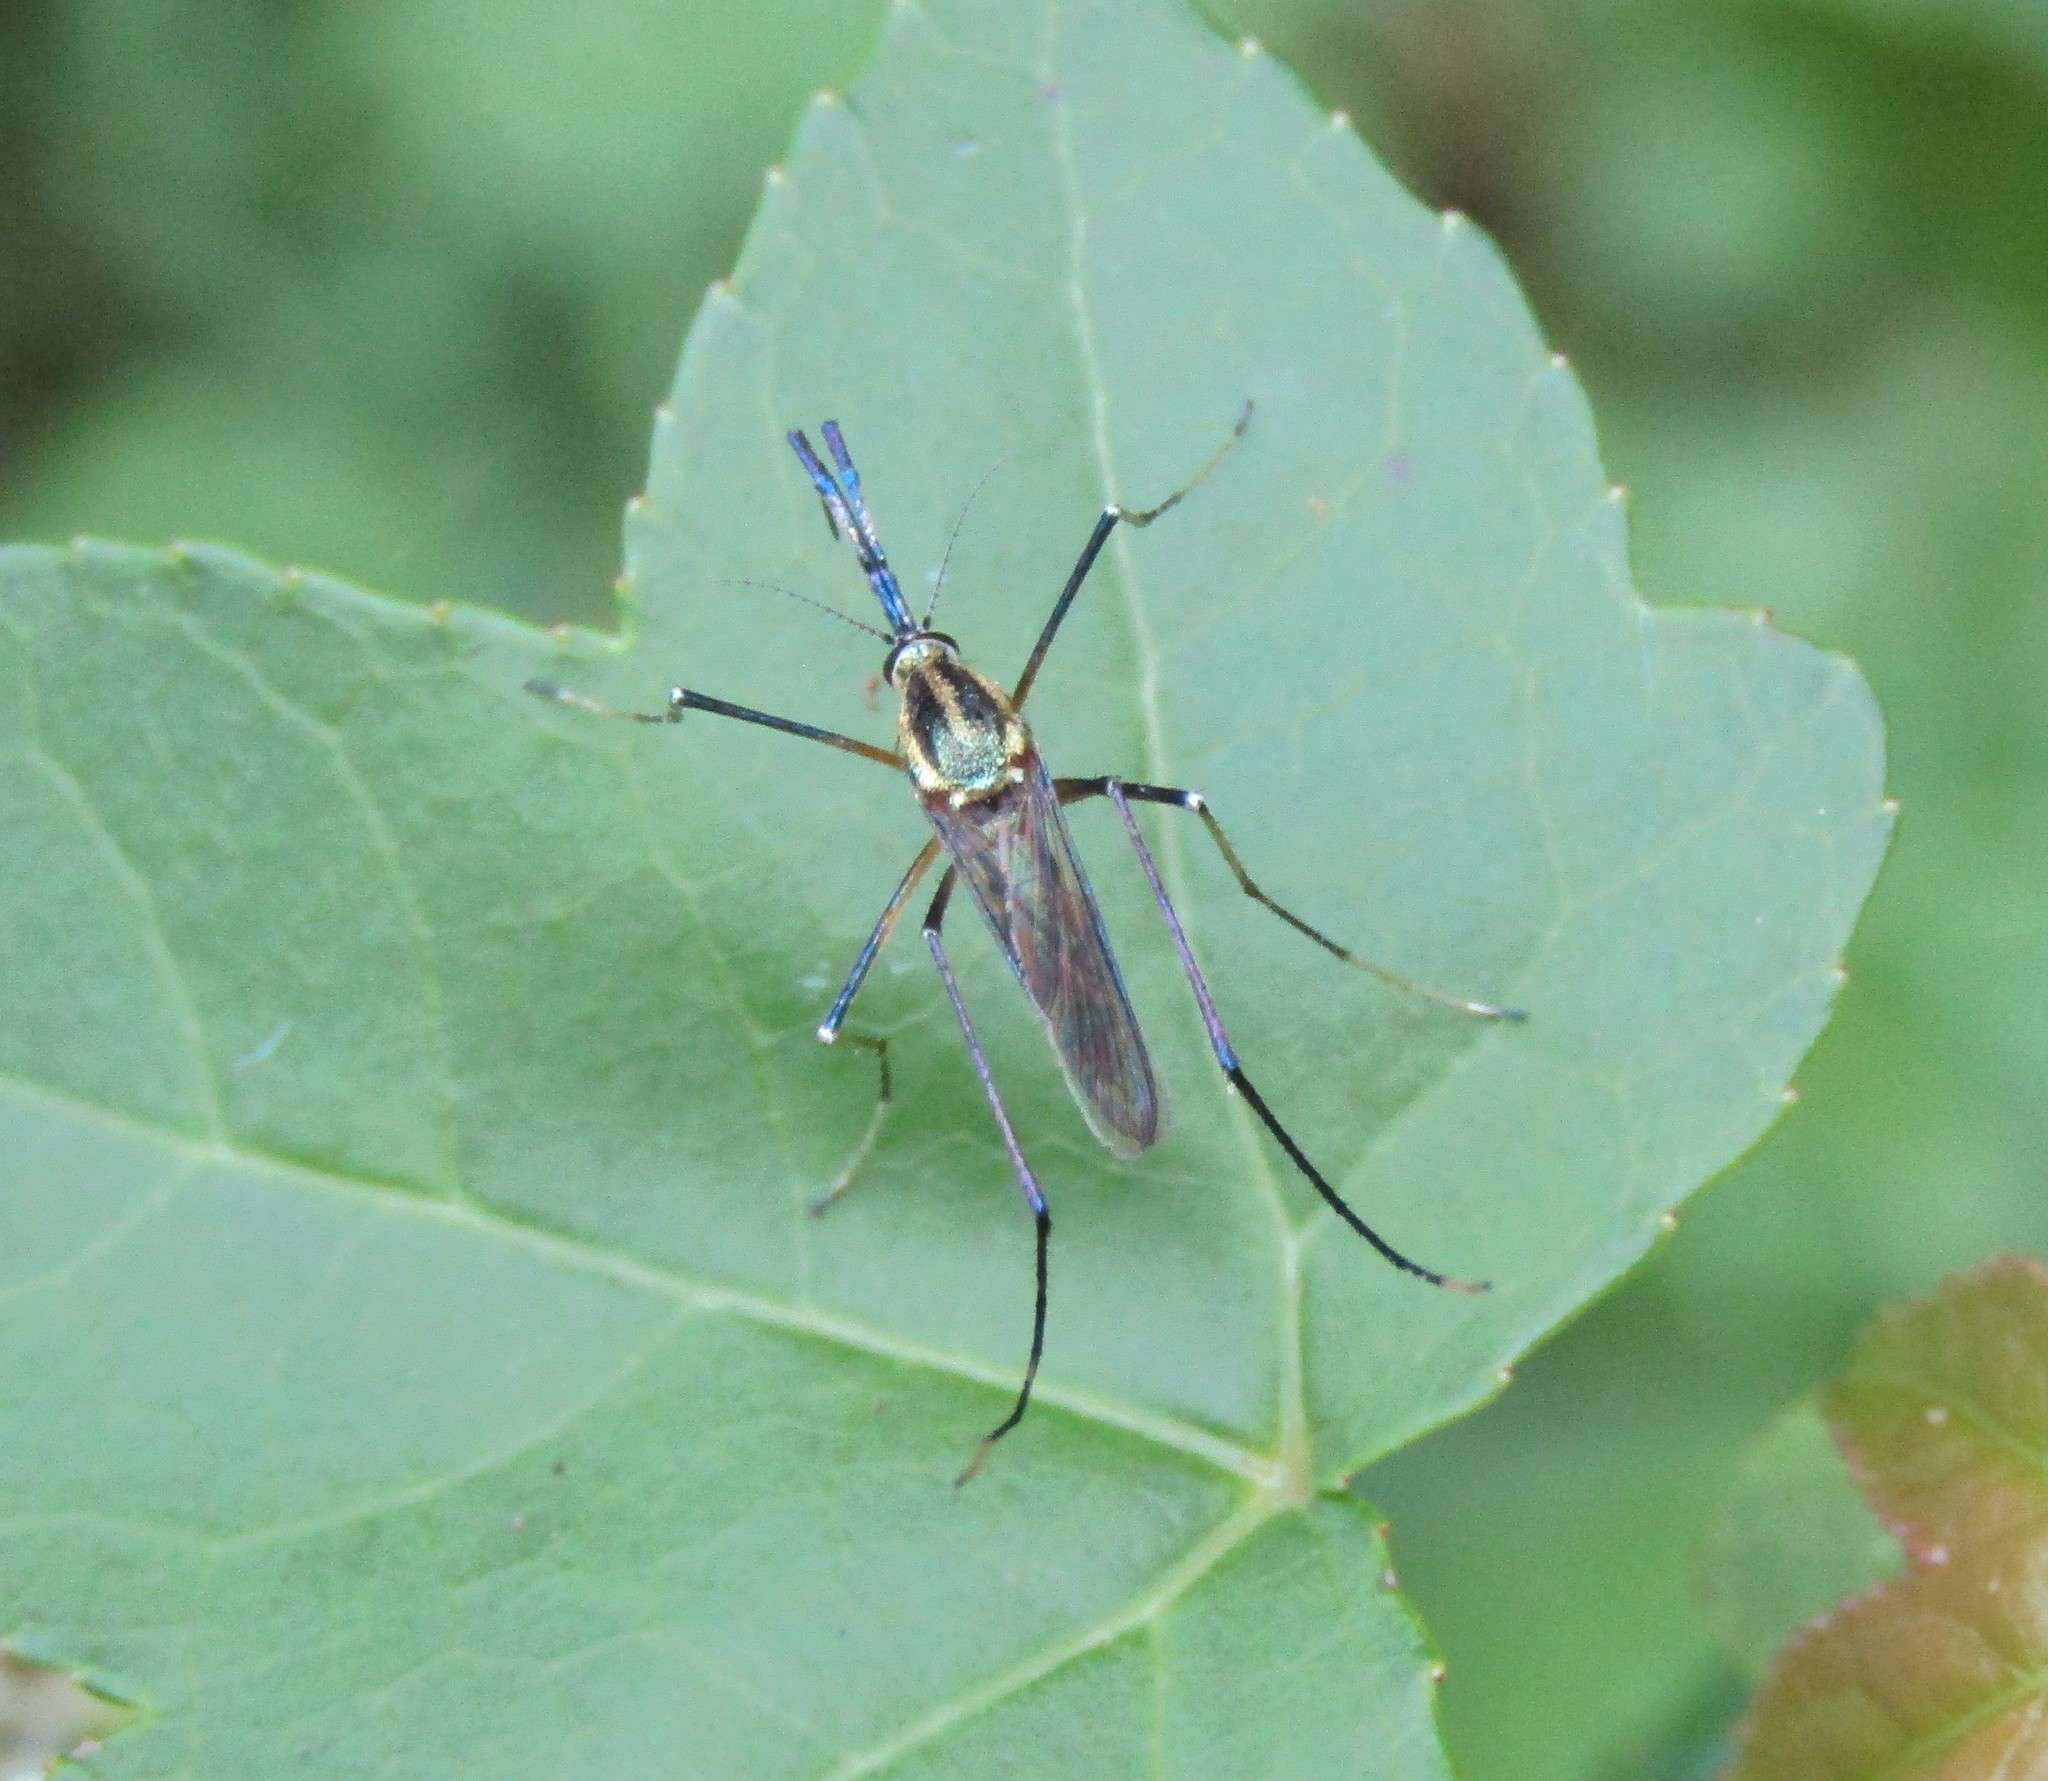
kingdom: Animalia
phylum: Arthropoda
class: Insecta
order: Diptera
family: Culicidae
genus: Toxorhynchites
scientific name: Toxorhynchites rutilus
